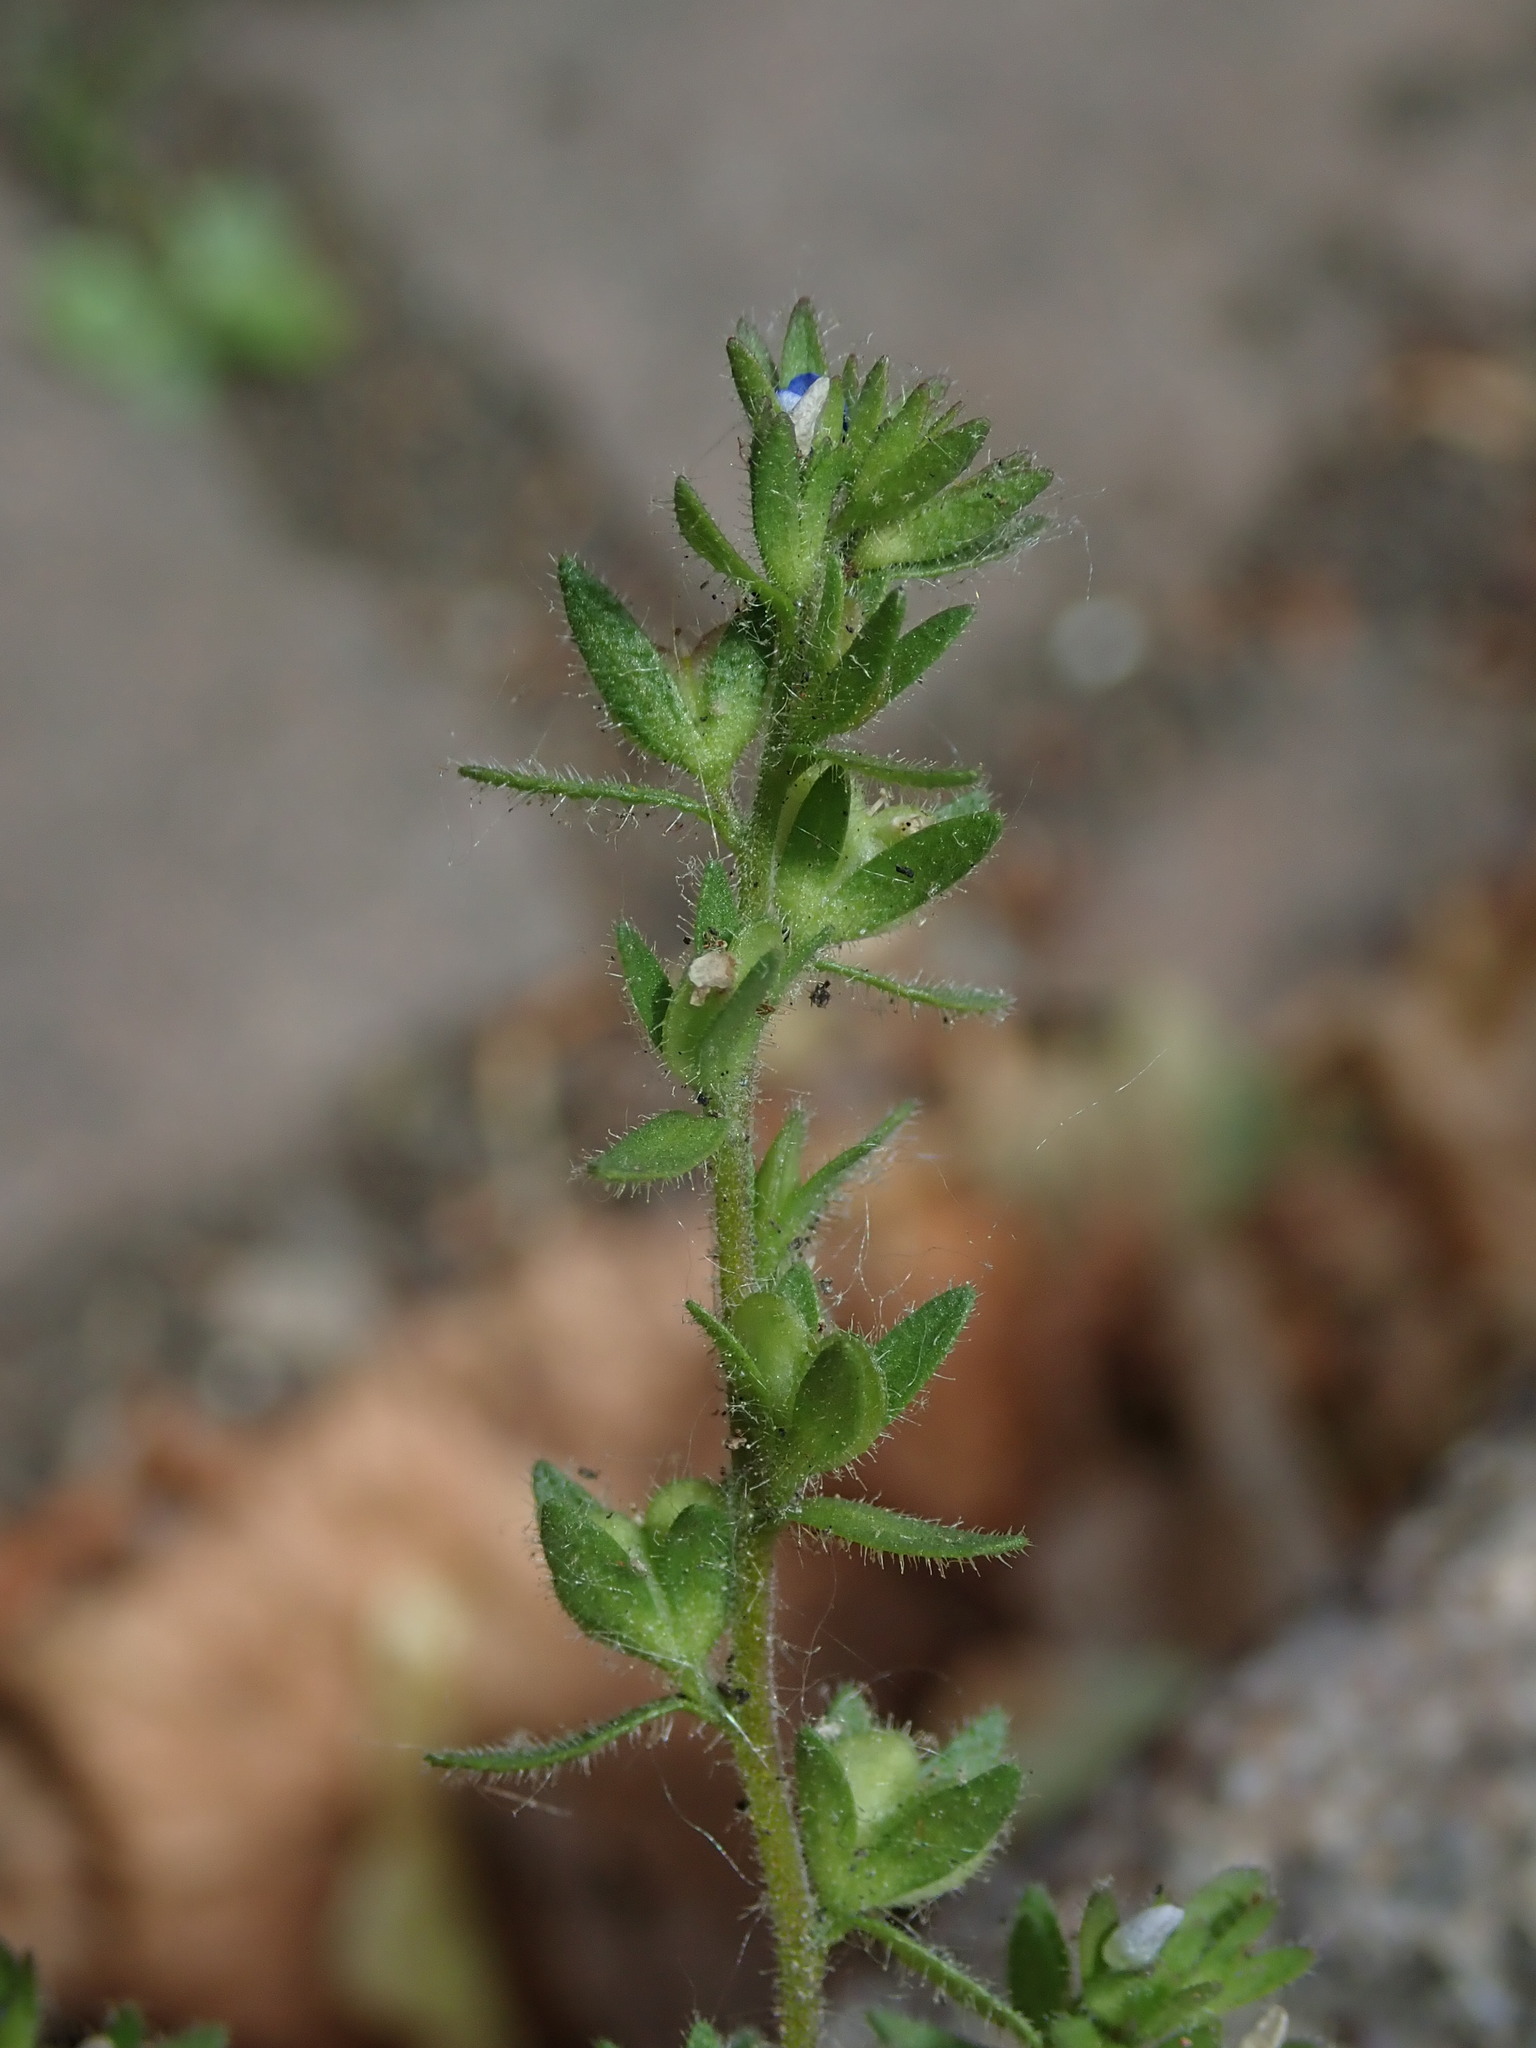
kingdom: Plantae
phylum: Tracheophyta
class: Magnoliopsida
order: Lamiales
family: Plantaginaceae
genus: Veronica
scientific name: Veronica arvensis
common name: Corn speedwell
